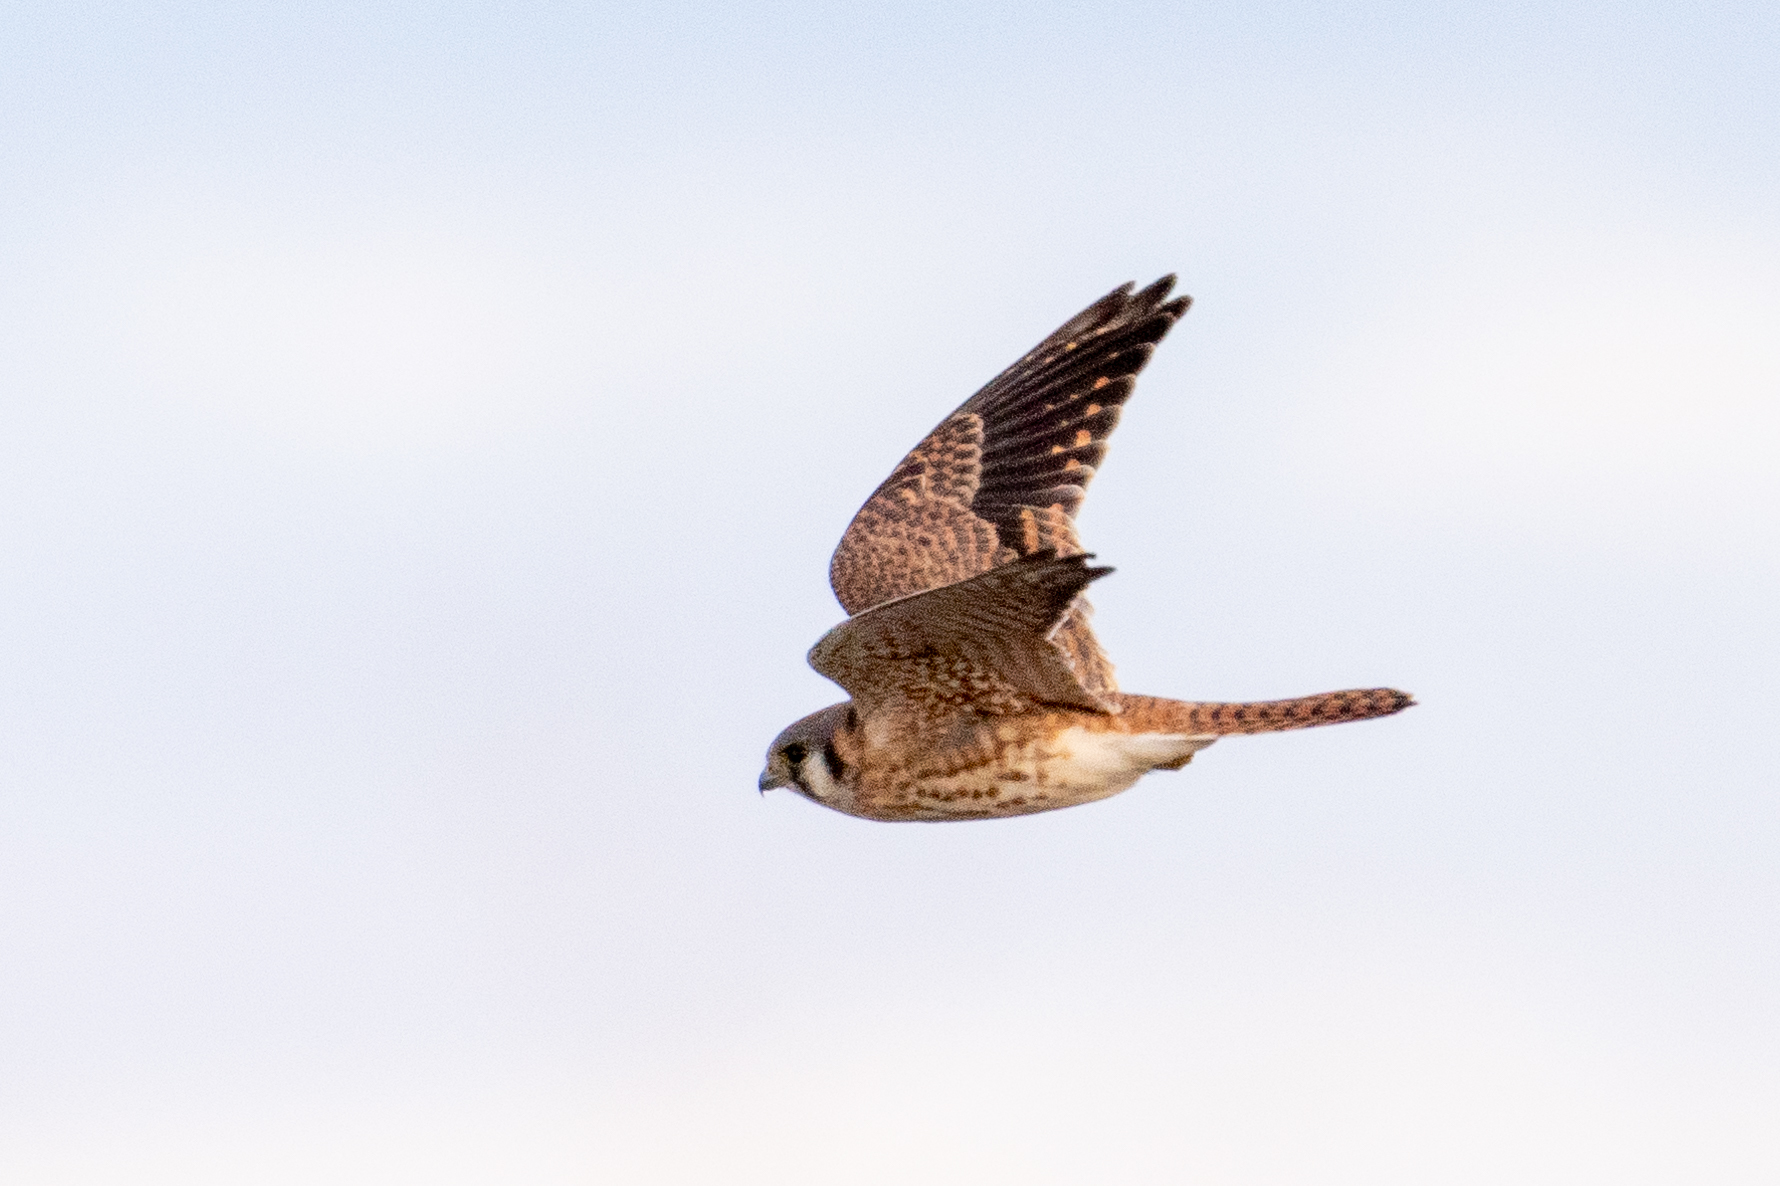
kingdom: Animalia
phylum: Chordata
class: Aves
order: Falconiformes
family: Falconidae
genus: Falco
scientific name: Falco sparverius
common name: American kestrel
